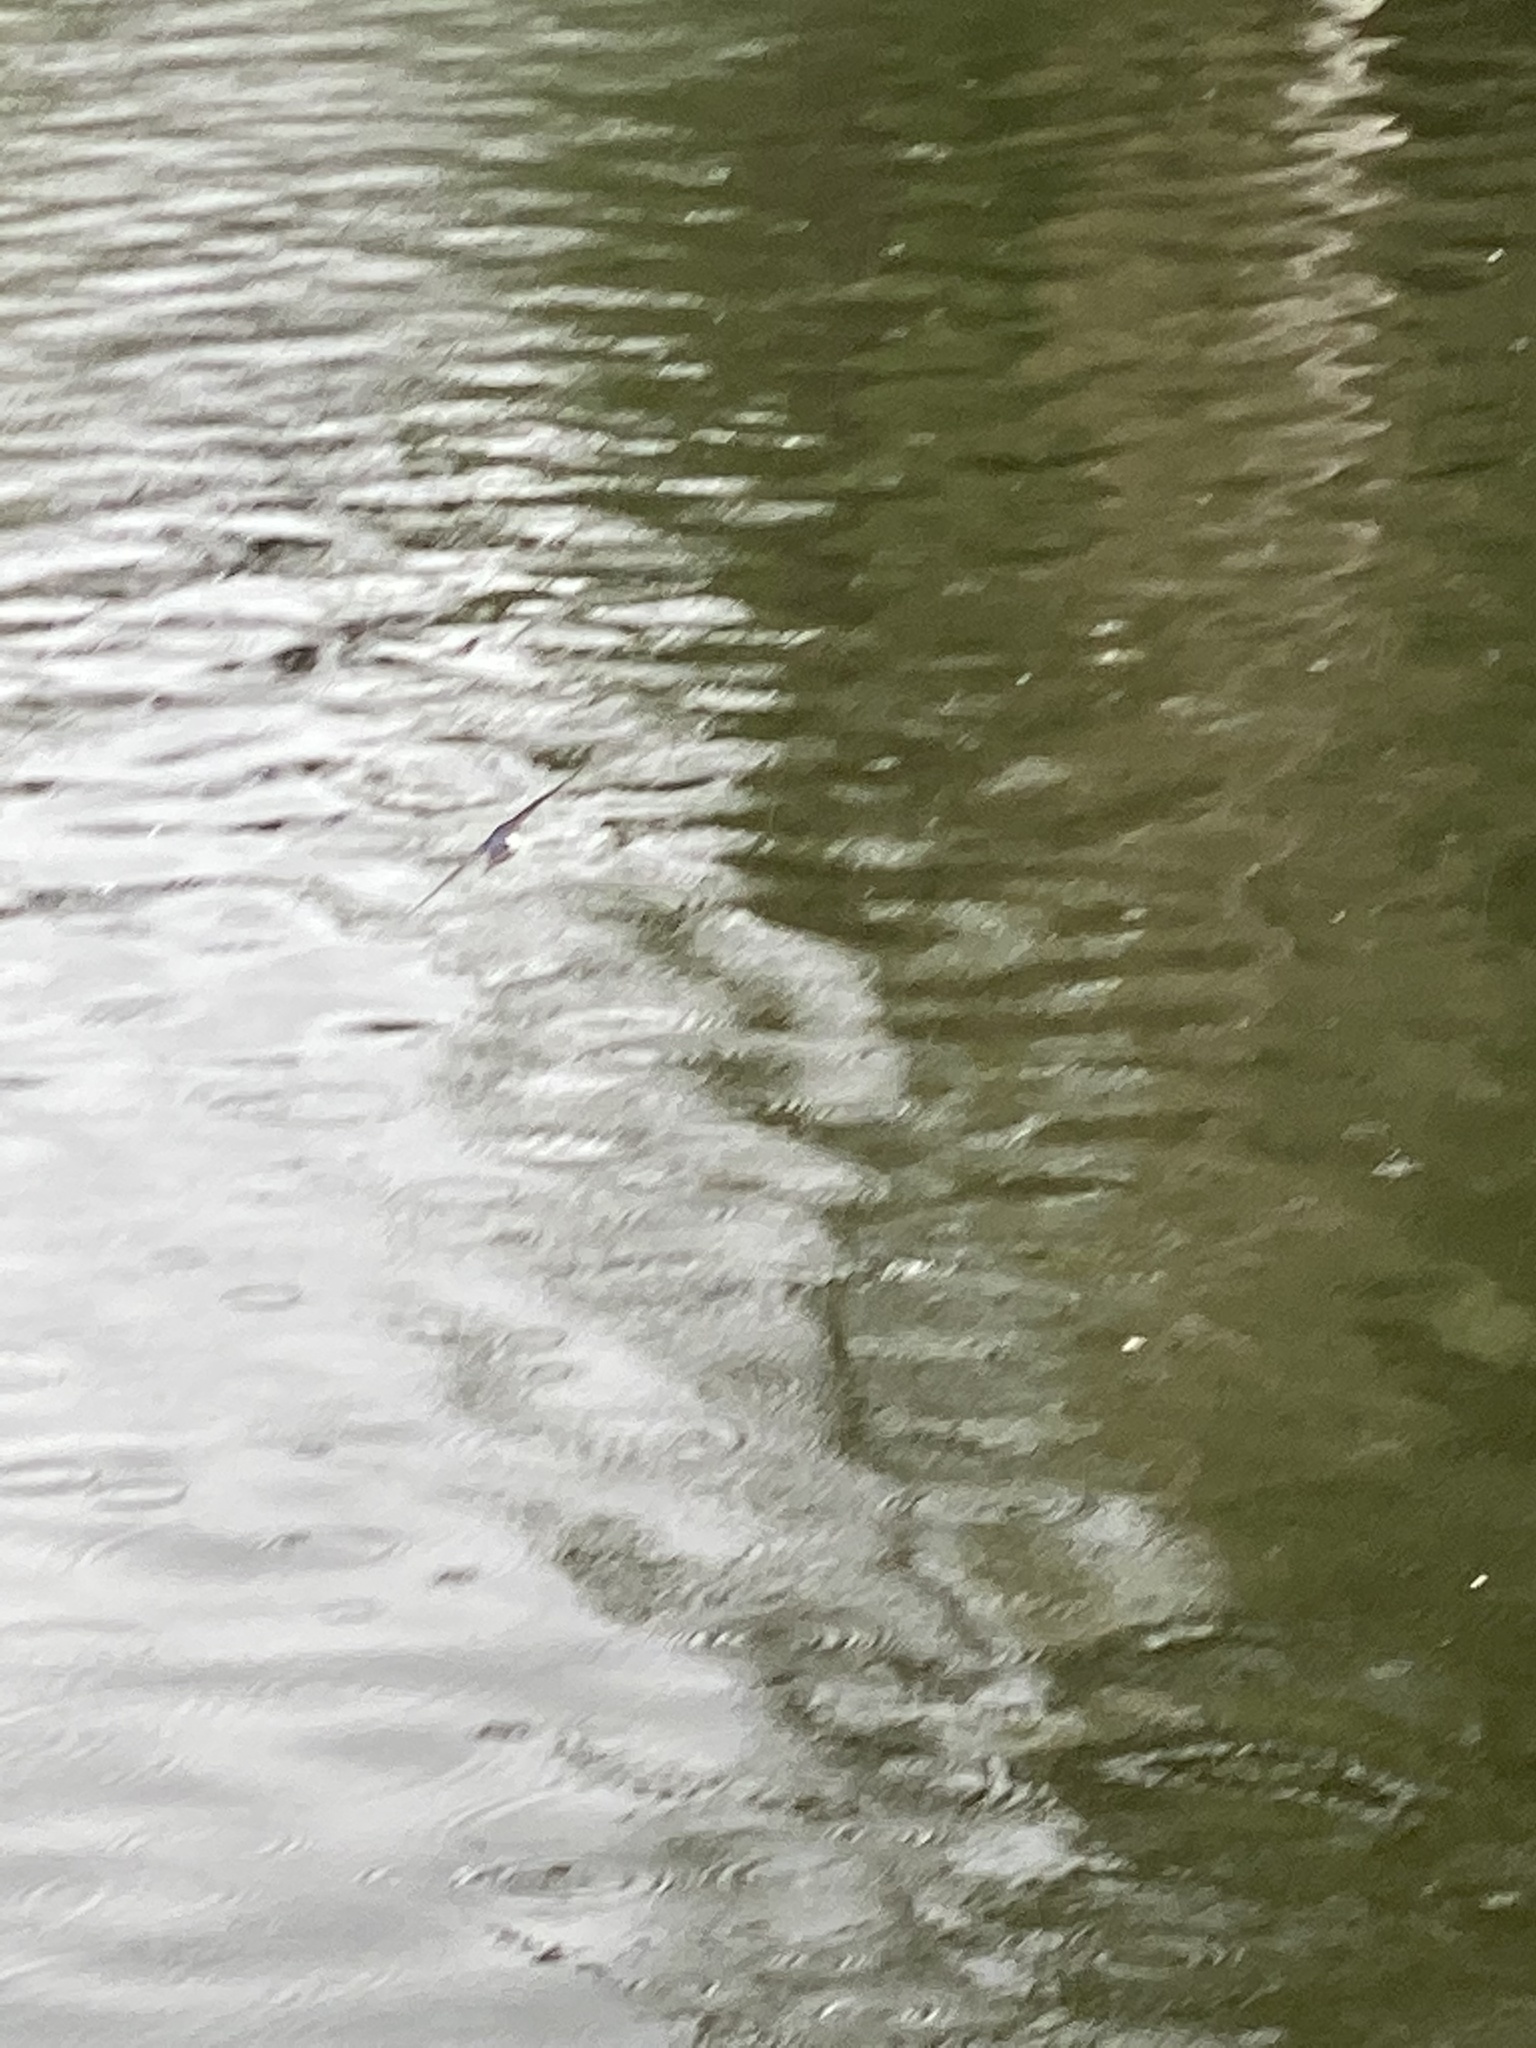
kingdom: Animalia
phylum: Chordata
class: Aves
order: Passeriformes
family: Hirundinidae
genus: Tachycineta
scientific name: Tachycineta thalassina
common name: Violet-green swallow
